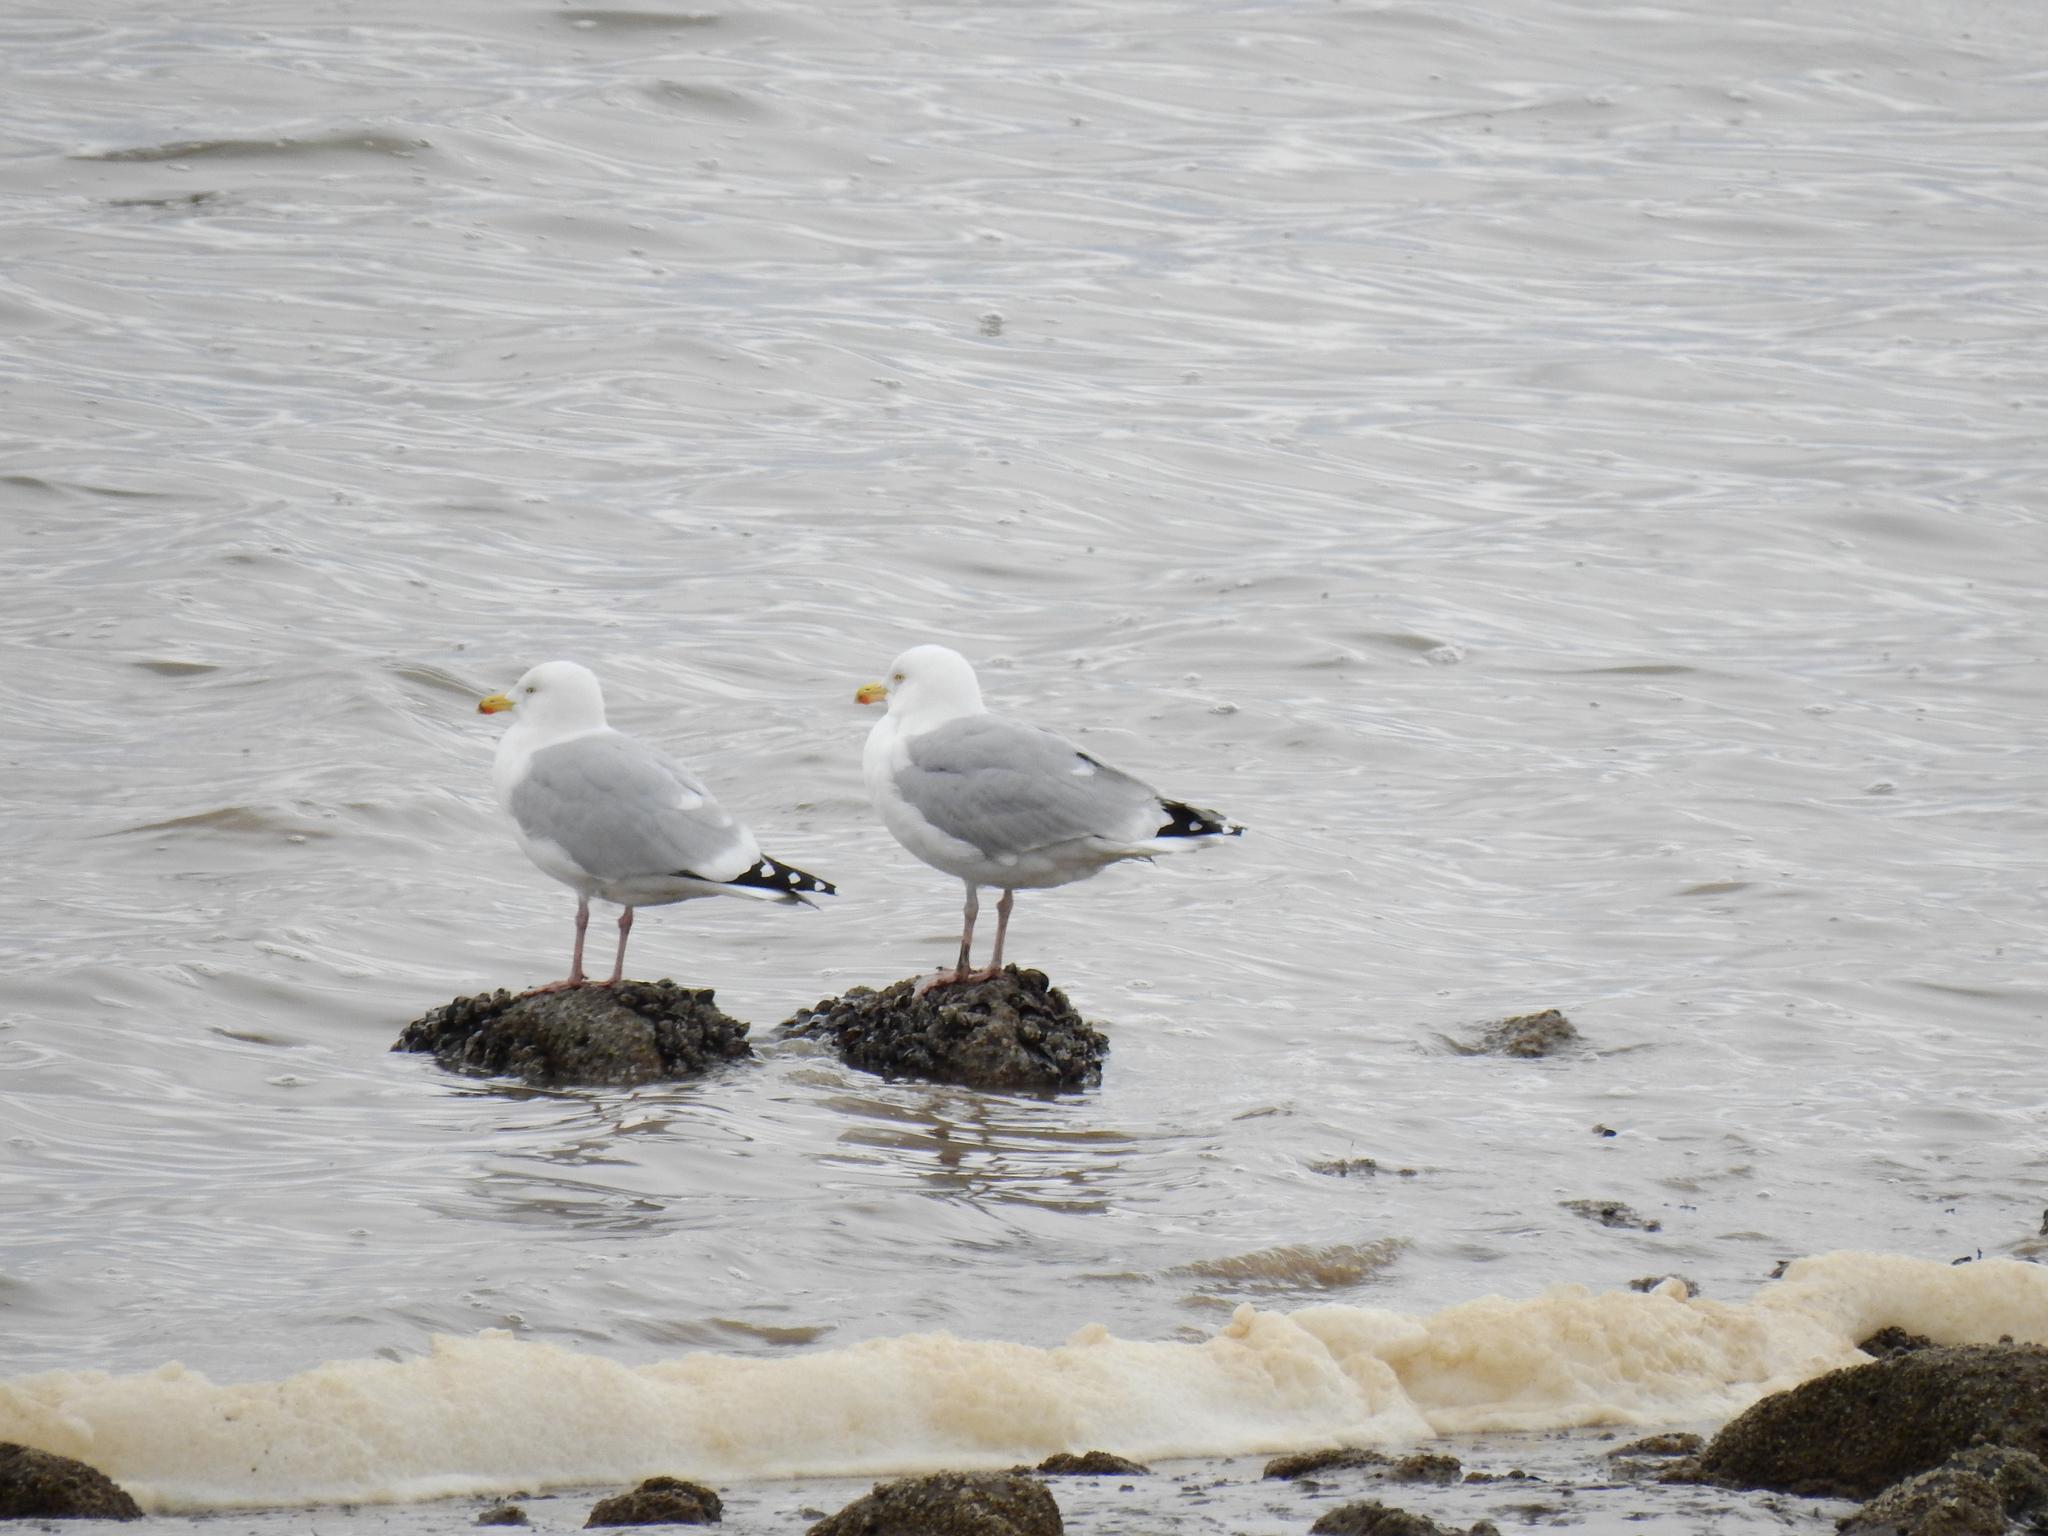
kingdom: Animalia
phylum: Chordata
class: Aves
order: Charadriiformes
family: Laridae
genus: Larus
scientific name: Larus argentatus
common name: Herring gull
